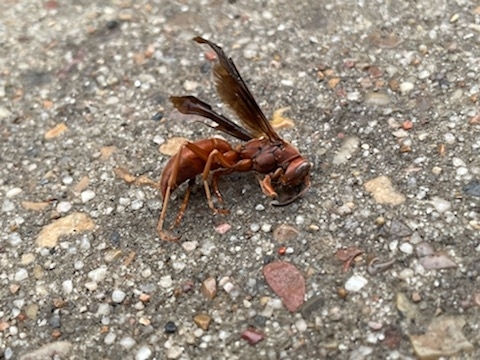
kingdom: Animalia
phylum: Arthropoda
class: Insecta
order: Hymenoptera
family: Eumenidae
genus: Polistes
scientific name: Polistes carolina
